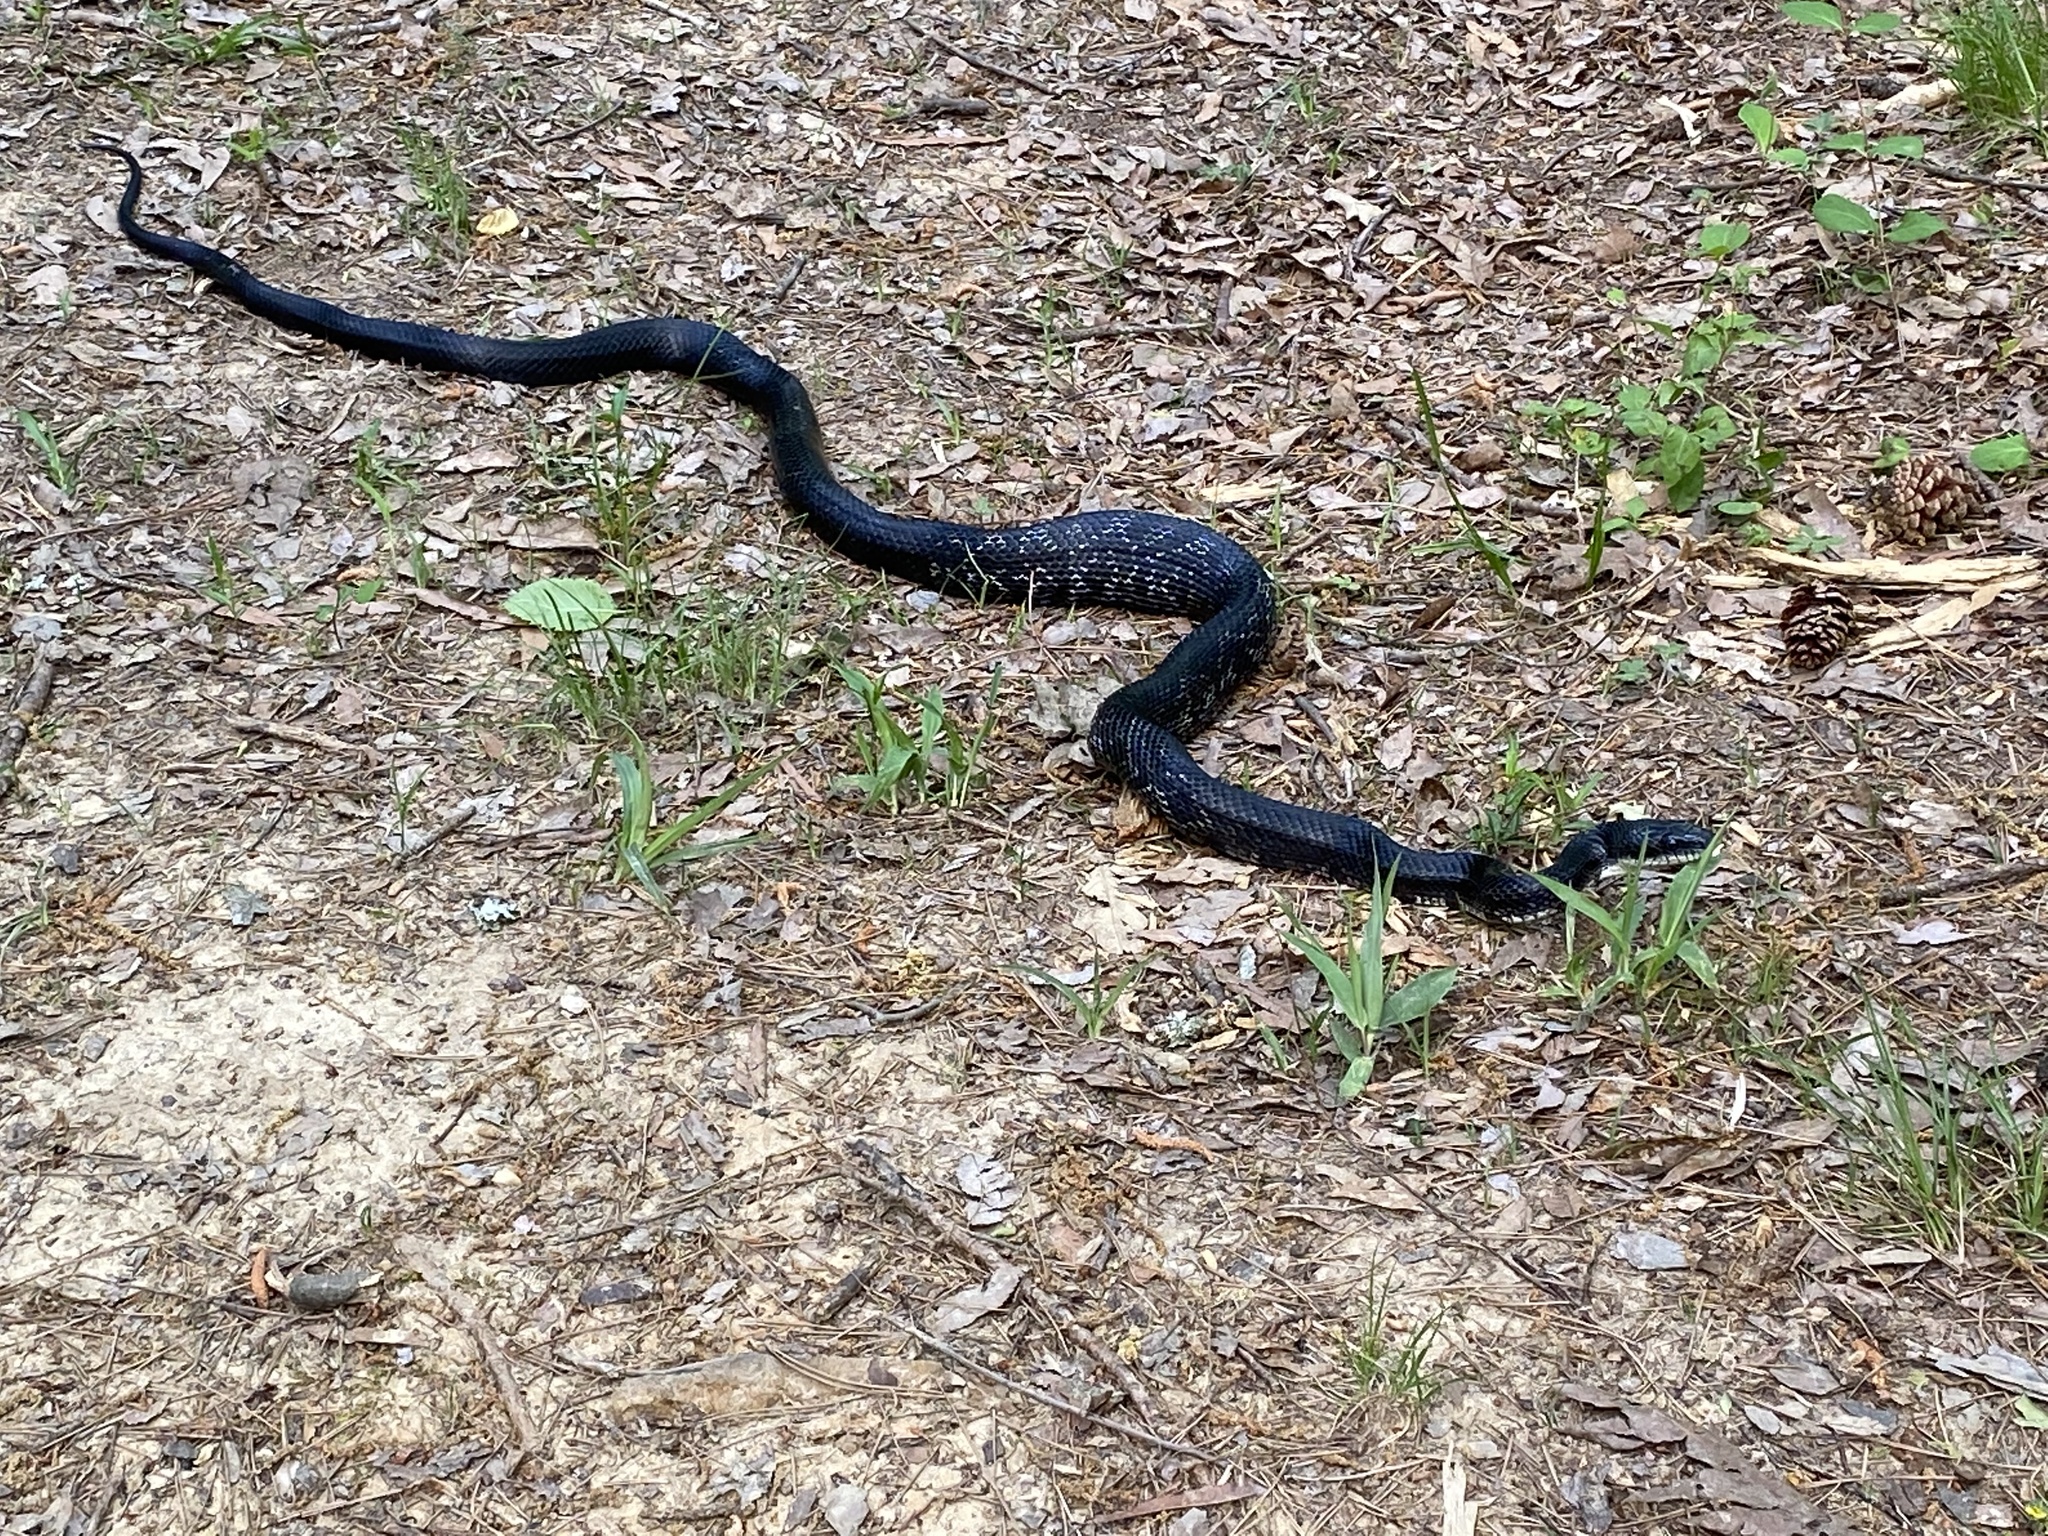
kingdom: Animalia
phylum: Chordata
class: Squamata
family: Colubridae
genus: Pantherophis
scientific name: Pantherophis alleghaniensis
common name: Eastern rat snake
